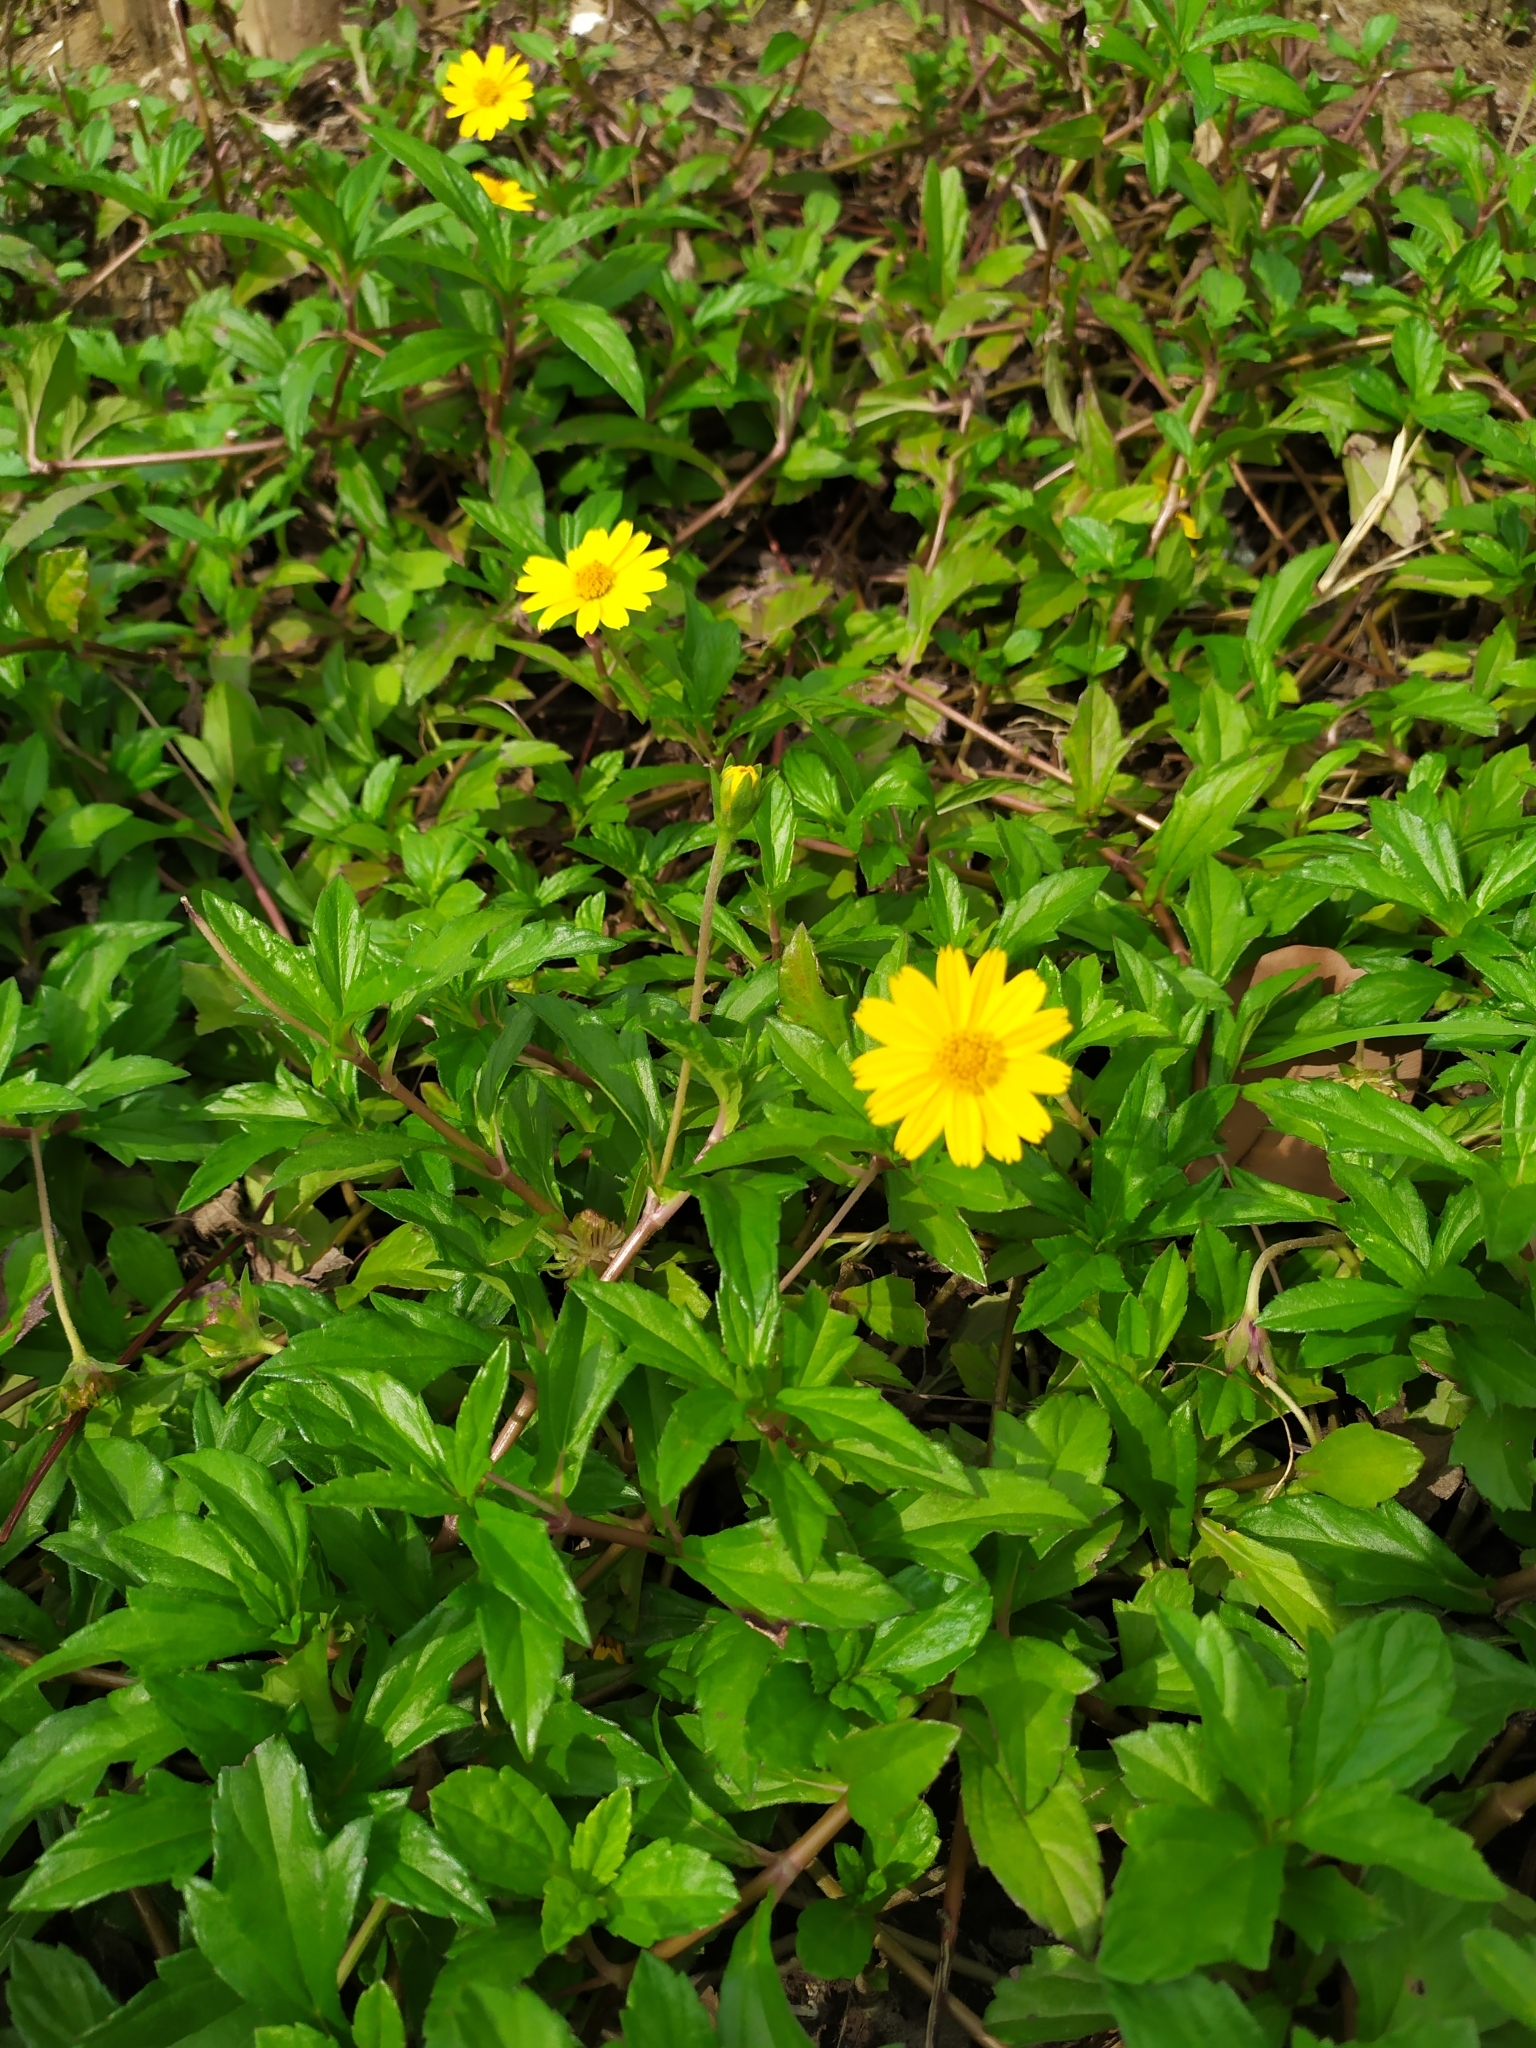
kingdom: Plantae
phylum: Tracheophyta
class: Magnoliopsida
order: Asterales
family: Asteraceae
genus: Sphagneticola
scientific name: Sphagneticola trilobata
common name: Bay biscayne creeping-oxeye
